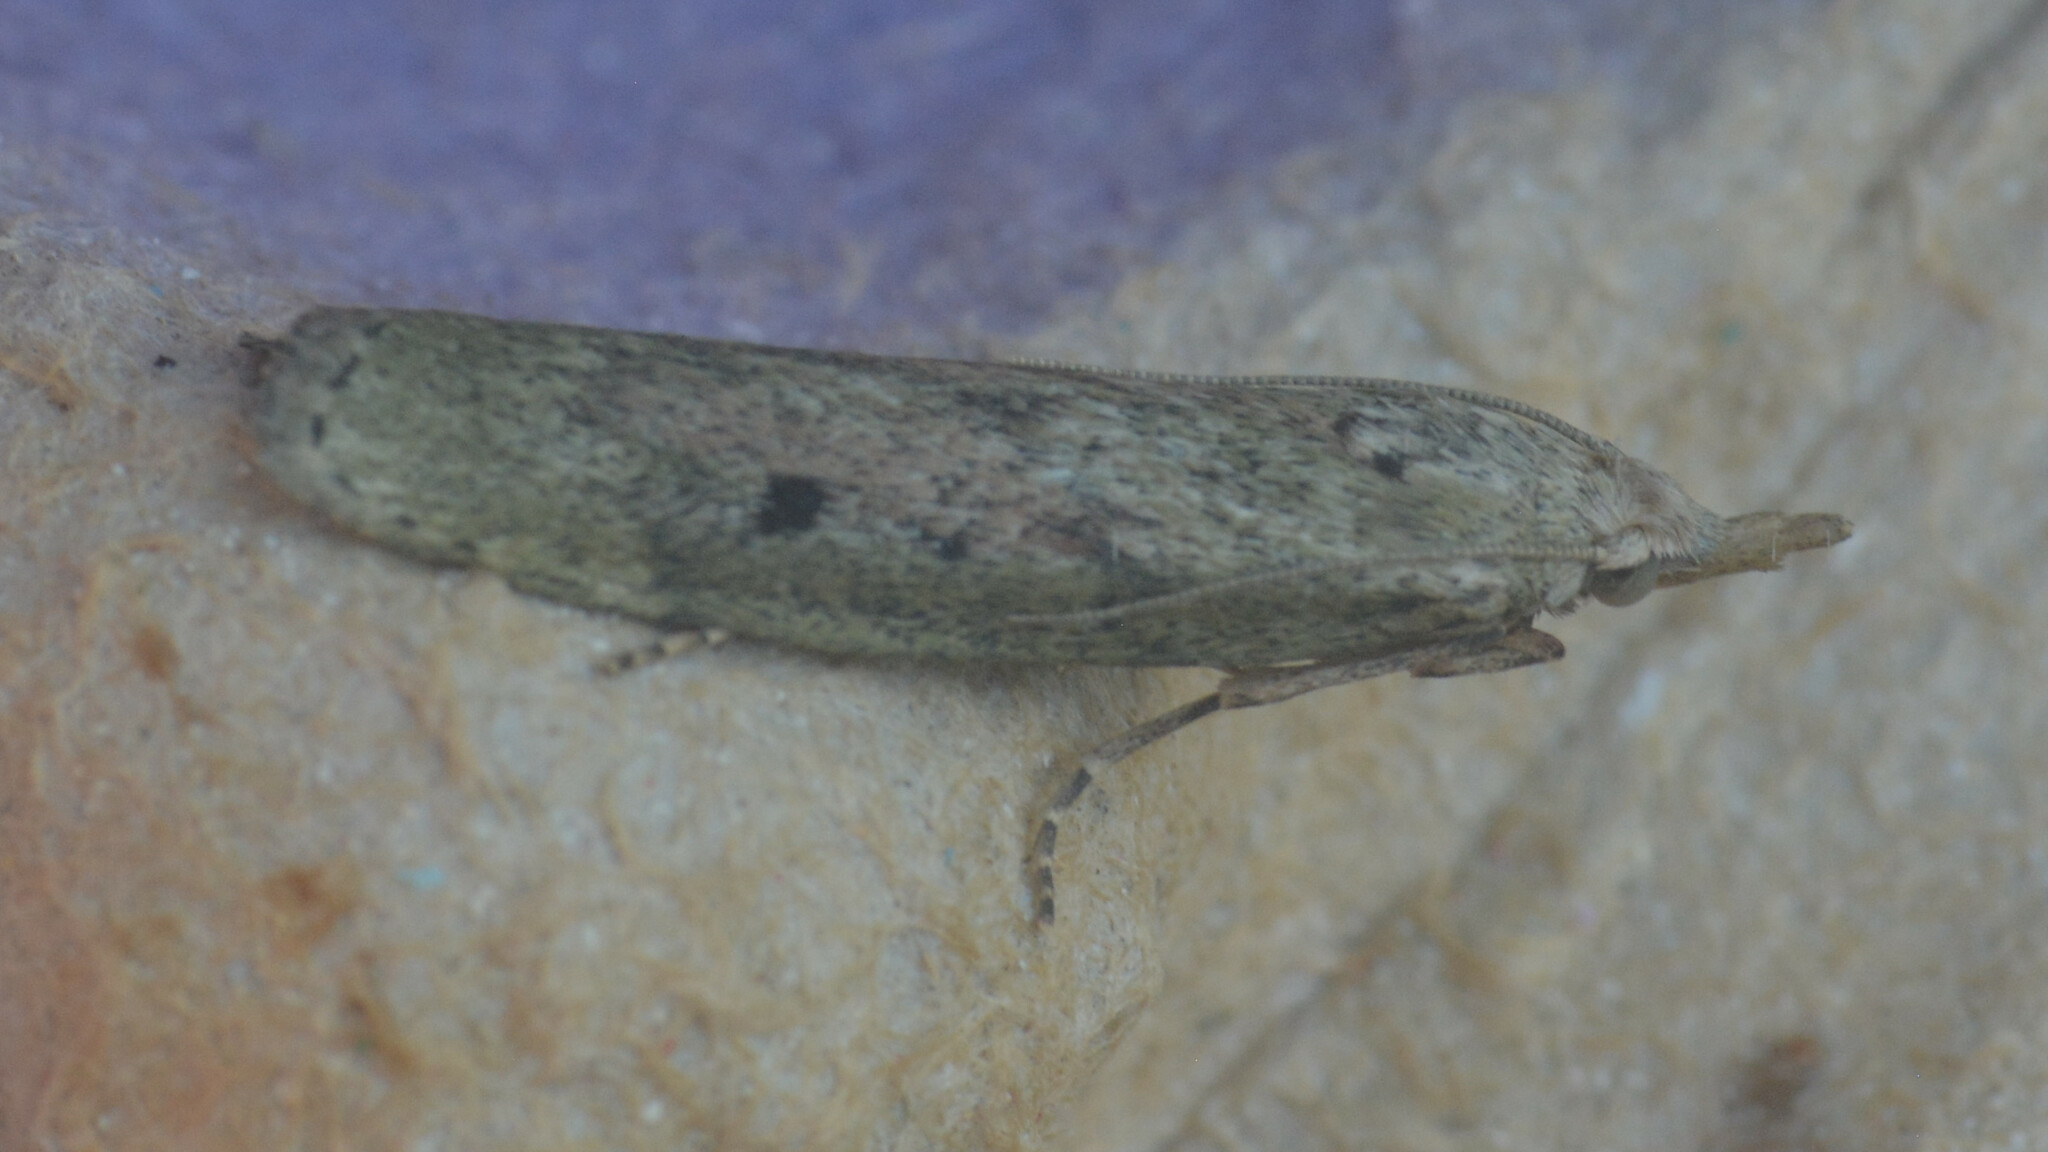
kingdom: Animalia
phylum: Arthropoda
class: Insecta
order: Lepidoptera
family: Pyralidae
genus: Aphomia
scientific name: Aphomia sociella
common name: Bee moth
